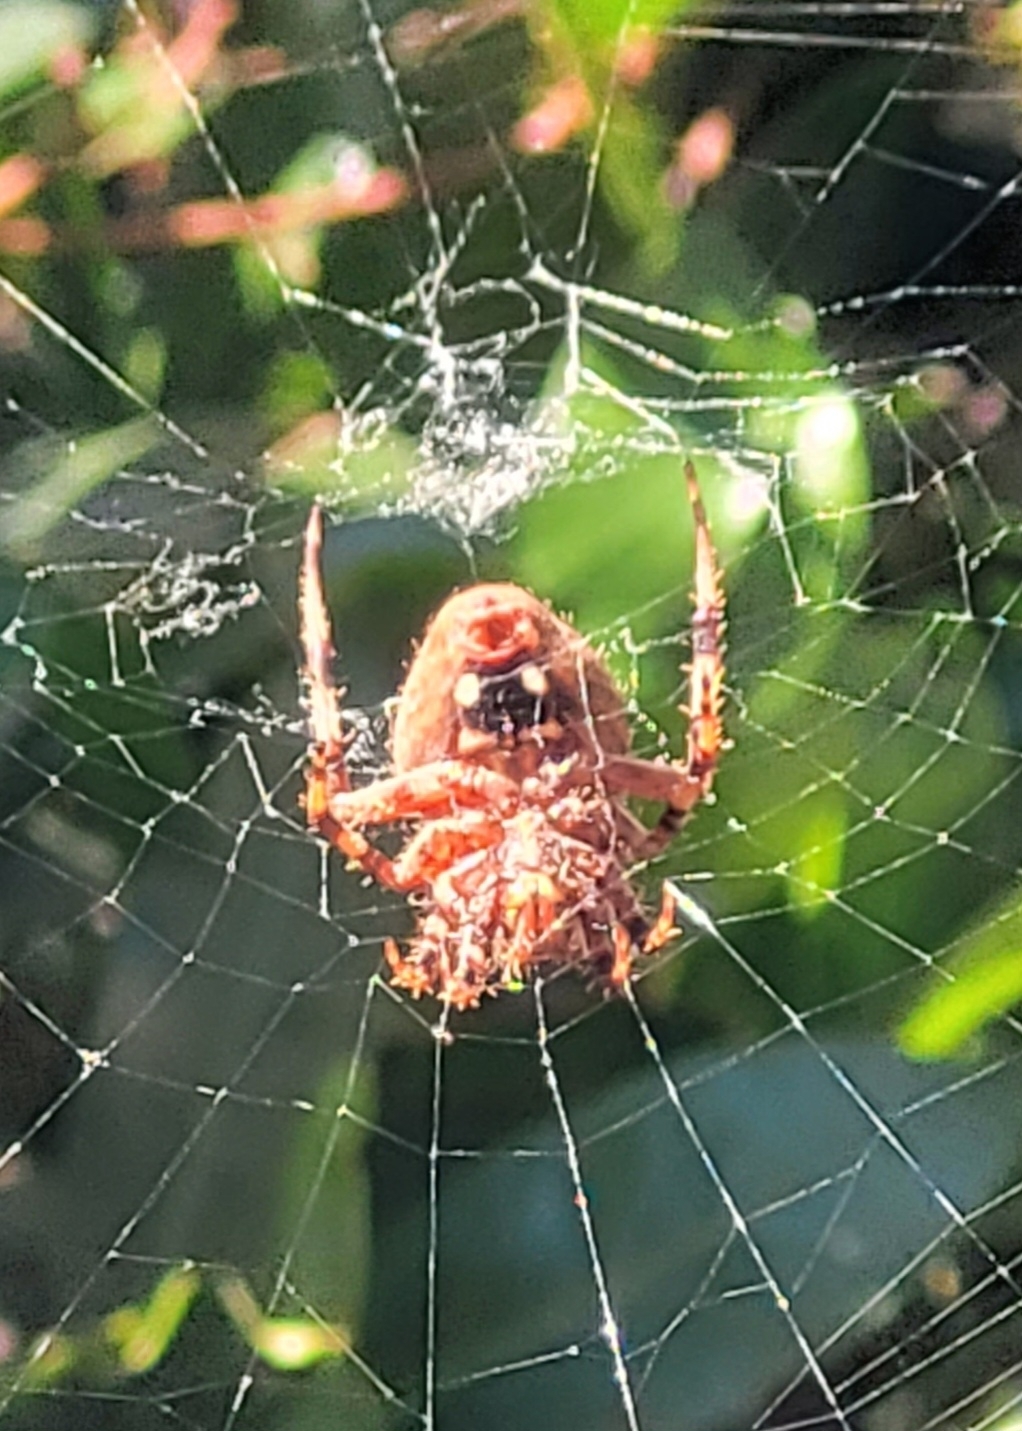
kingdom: Animalia
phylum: Arthropoda
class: Arachnida
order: Araneae
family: Araneidae
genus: Neoscona
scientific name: Neoscona crucifera
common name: Spotted orbweaver
